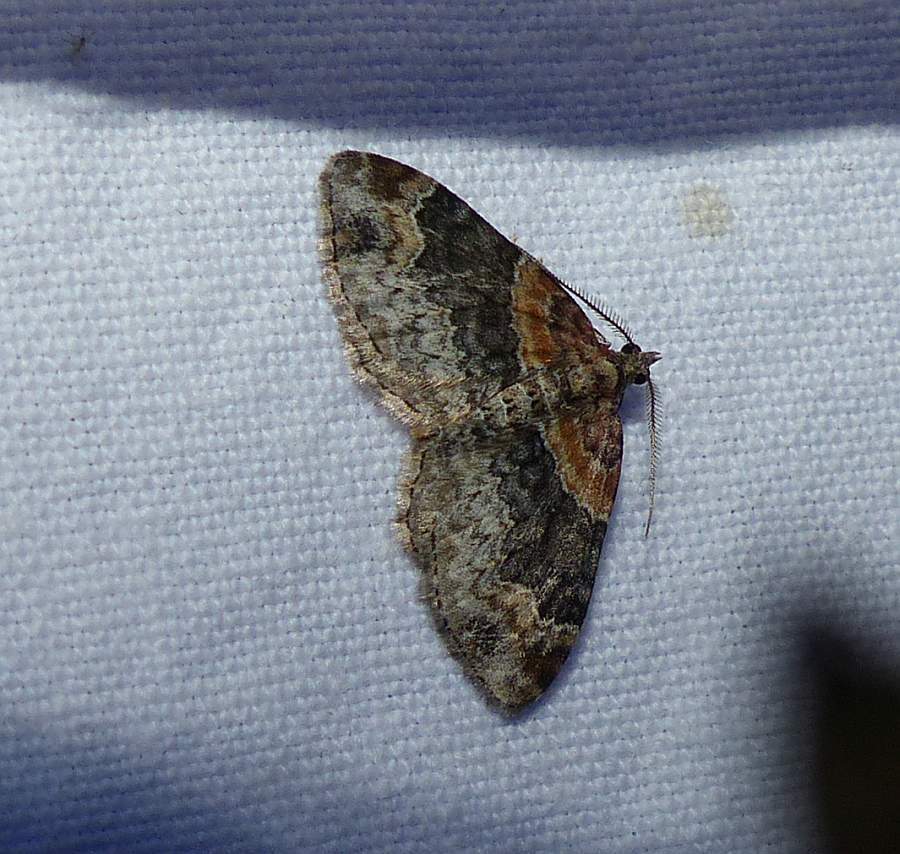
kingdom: Animalia
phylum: Arthropoda
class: Insecta
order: Lepidoptera
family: Geometridae
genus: Xanthorhoe
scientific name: Xanthorhoe ferrugata
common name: Dark-barred twin-spot carpet
